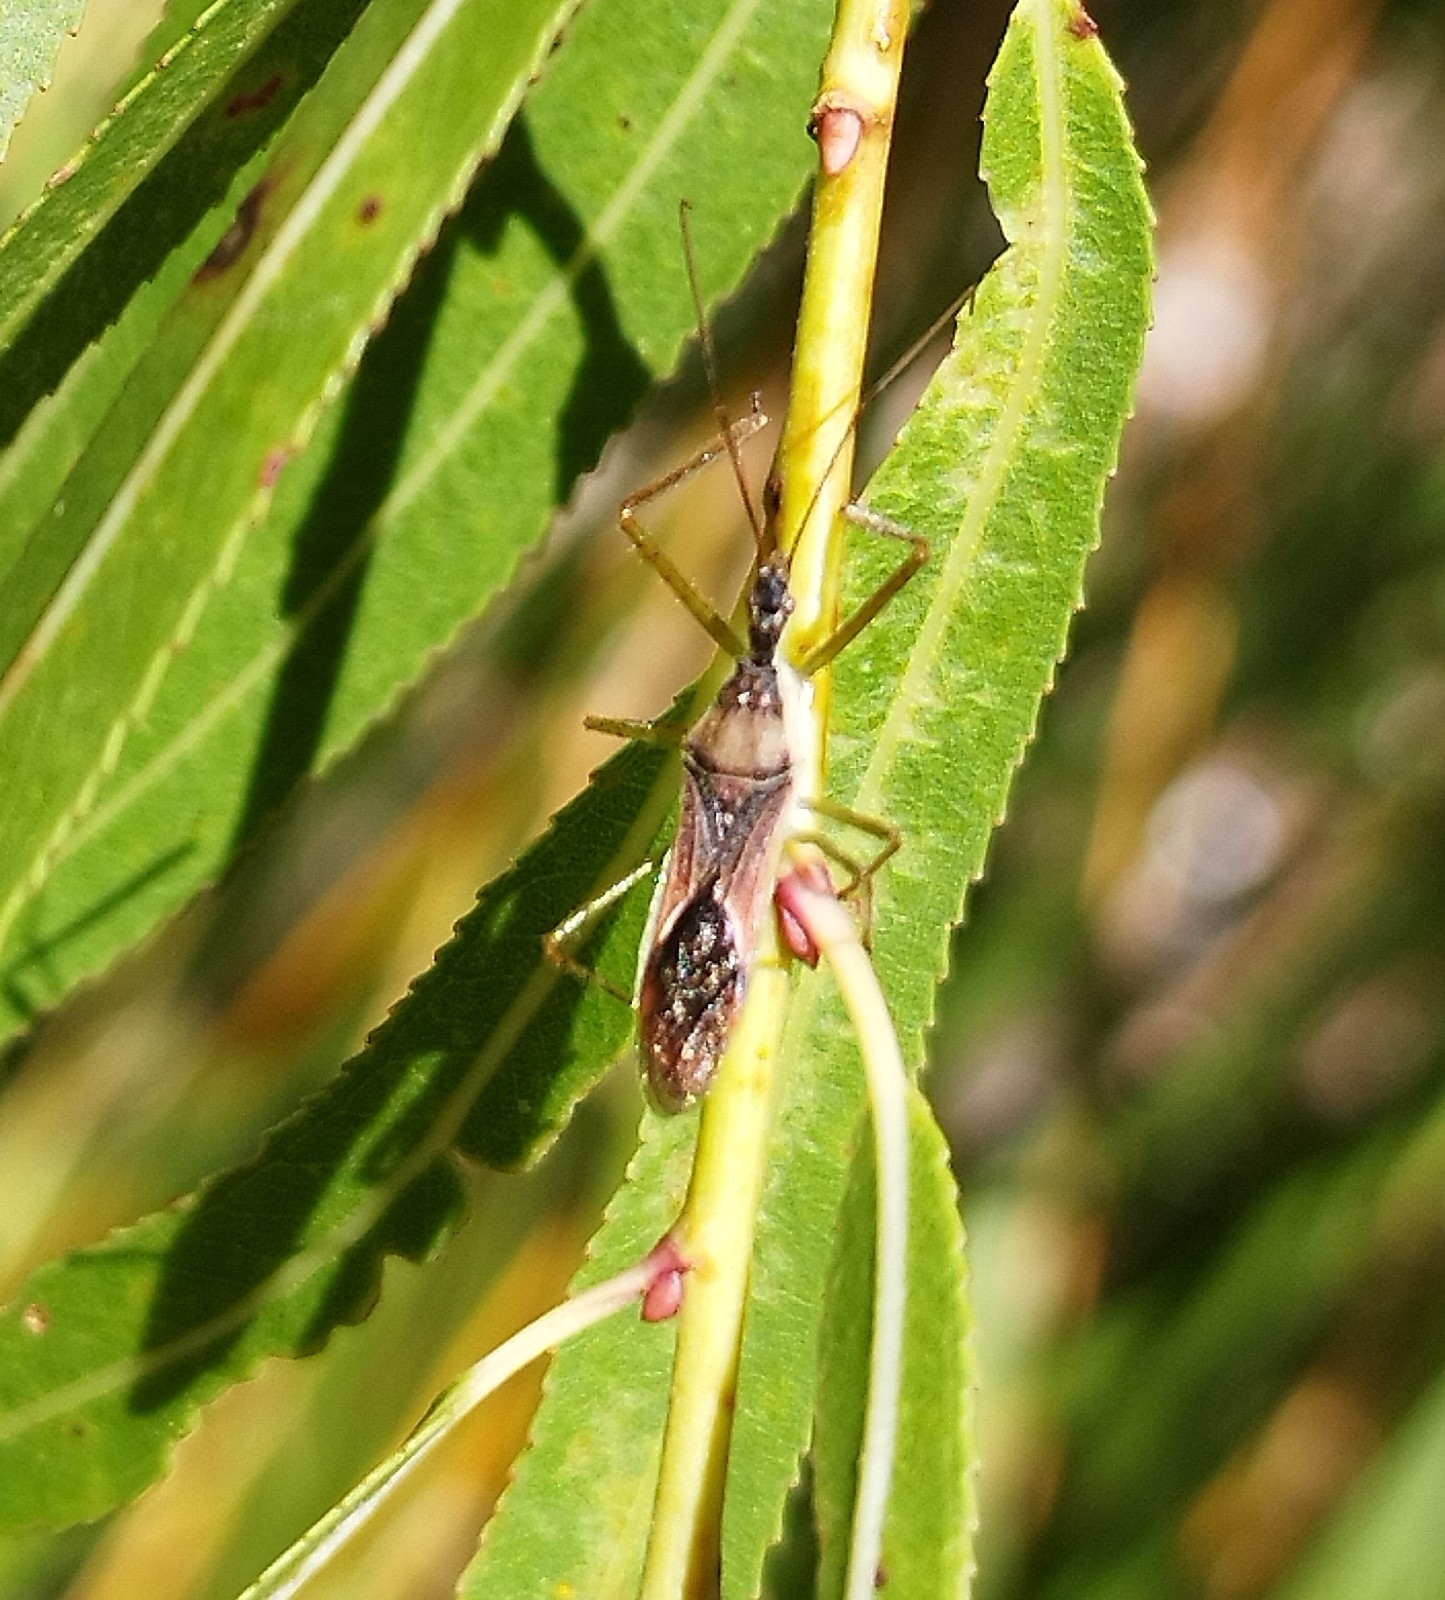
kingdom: Animalia
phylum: Arthropoda
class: Insecta
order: Hemiptera
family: Reduviidae
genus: Zelus
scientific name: Zelus renardii
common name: Assassin bug
